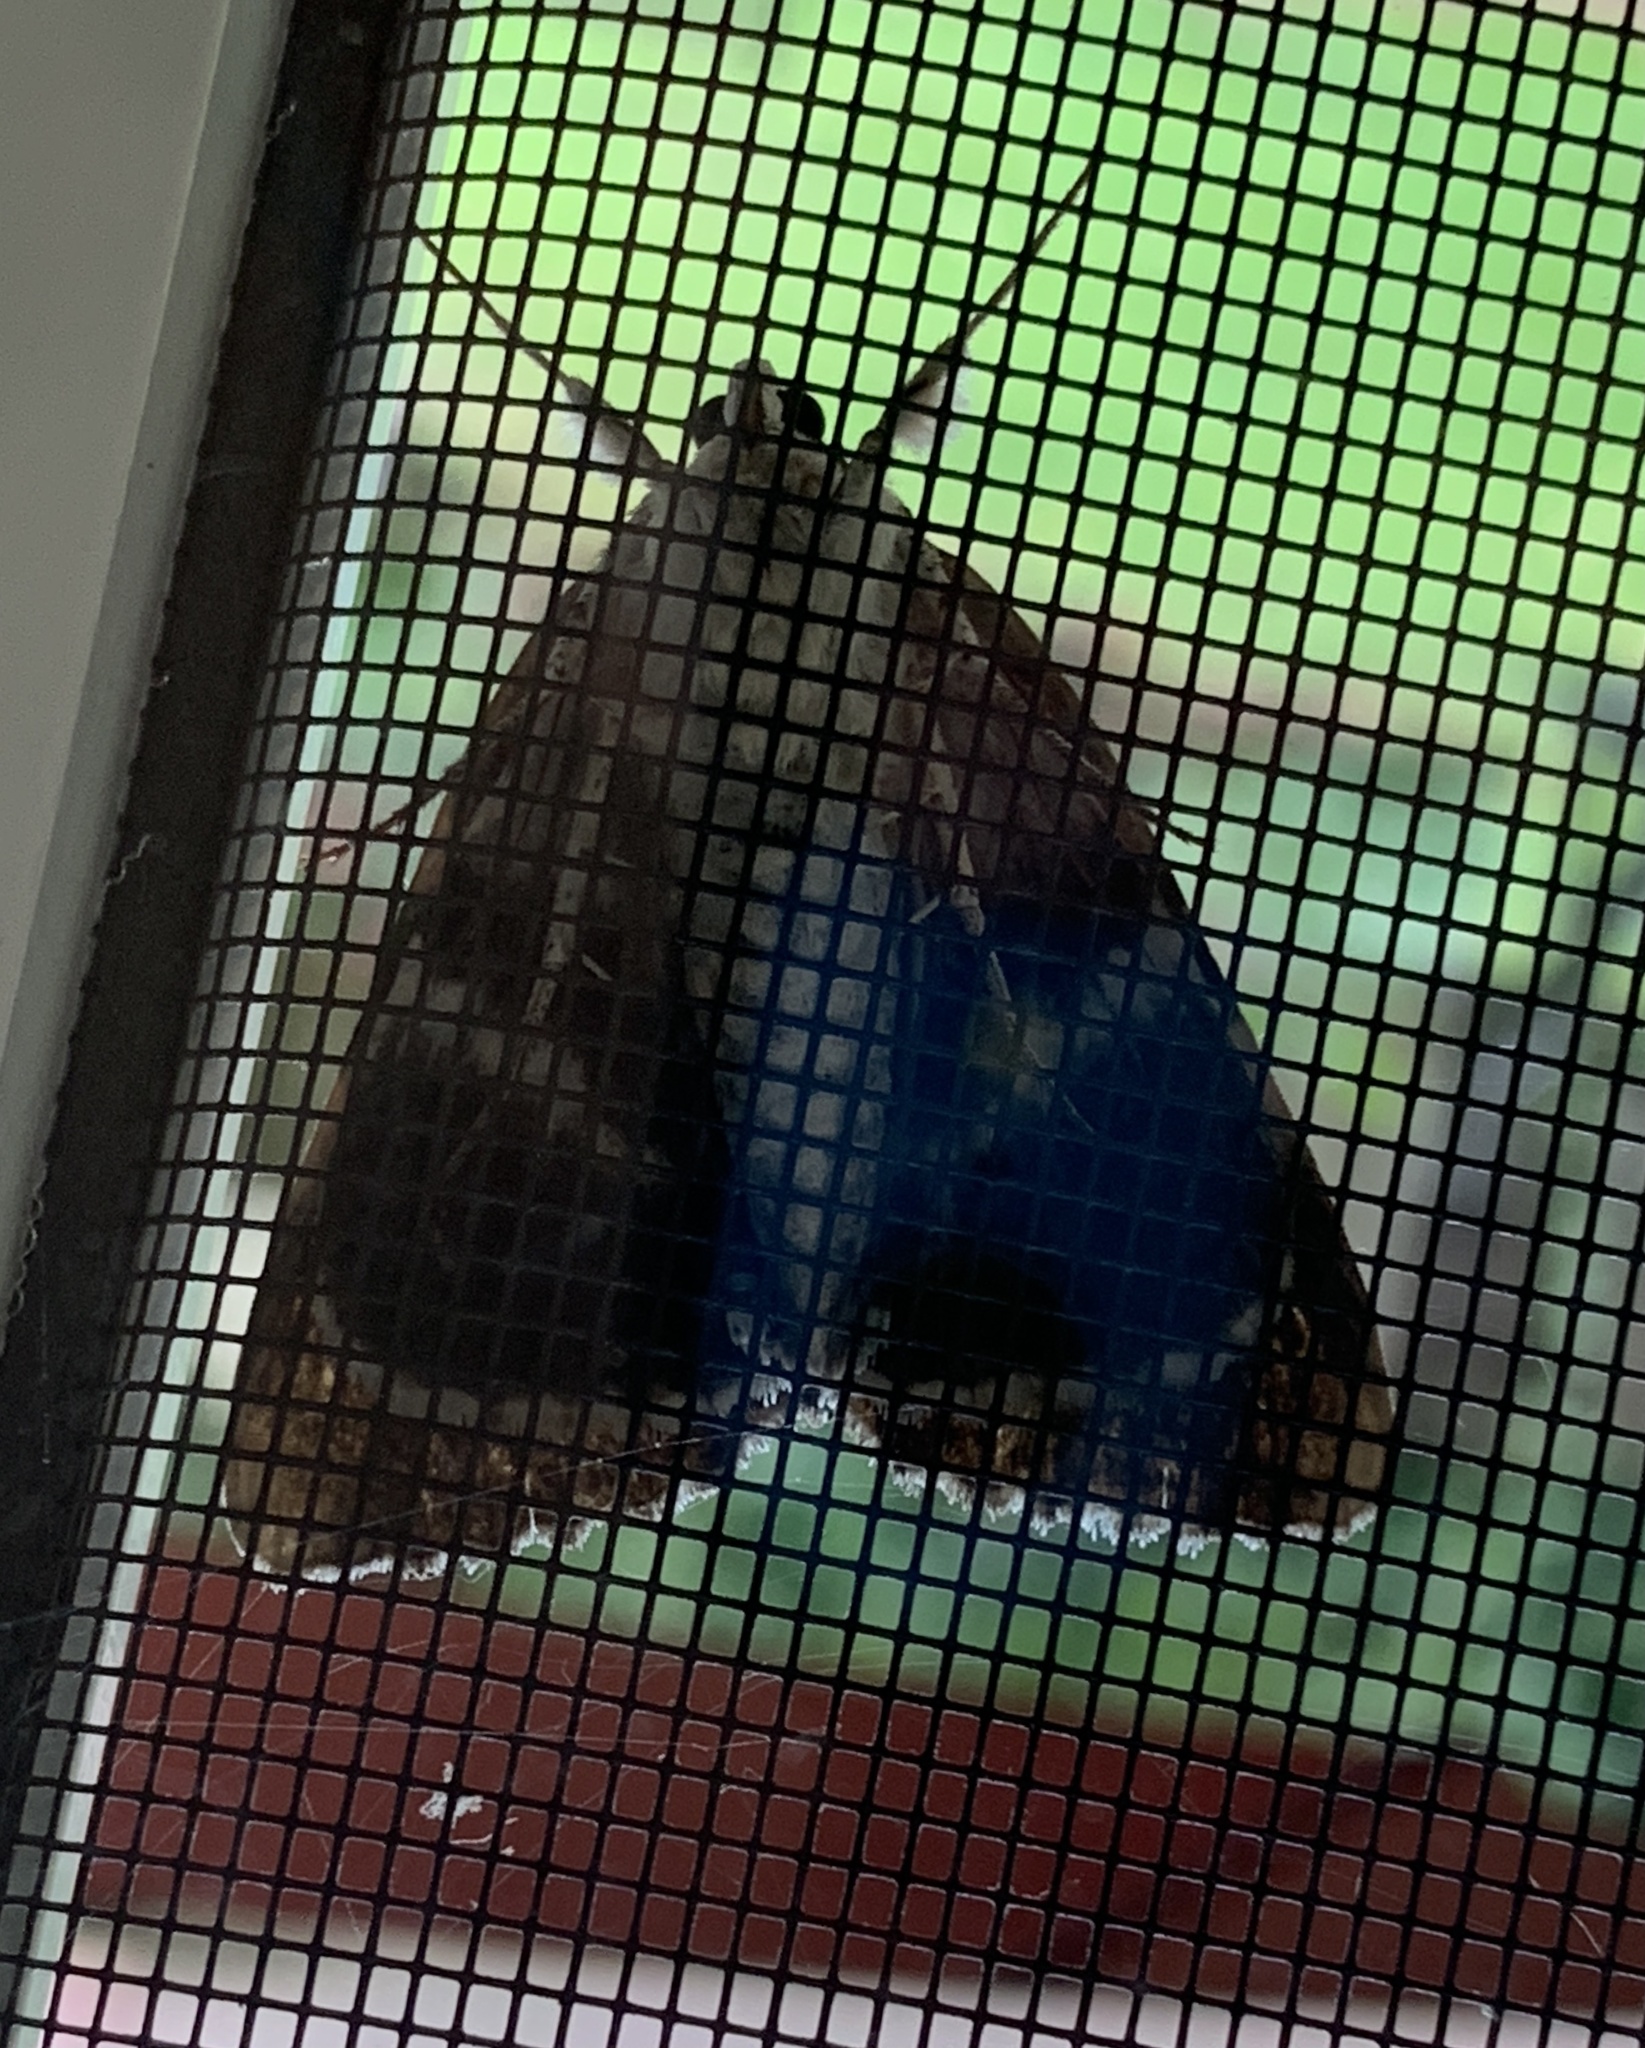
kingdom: Animalia
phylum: Arthropoda
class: Insecta
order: Lepidoptera
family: Erebidae
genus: Catocala
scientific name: Catocala sappho
